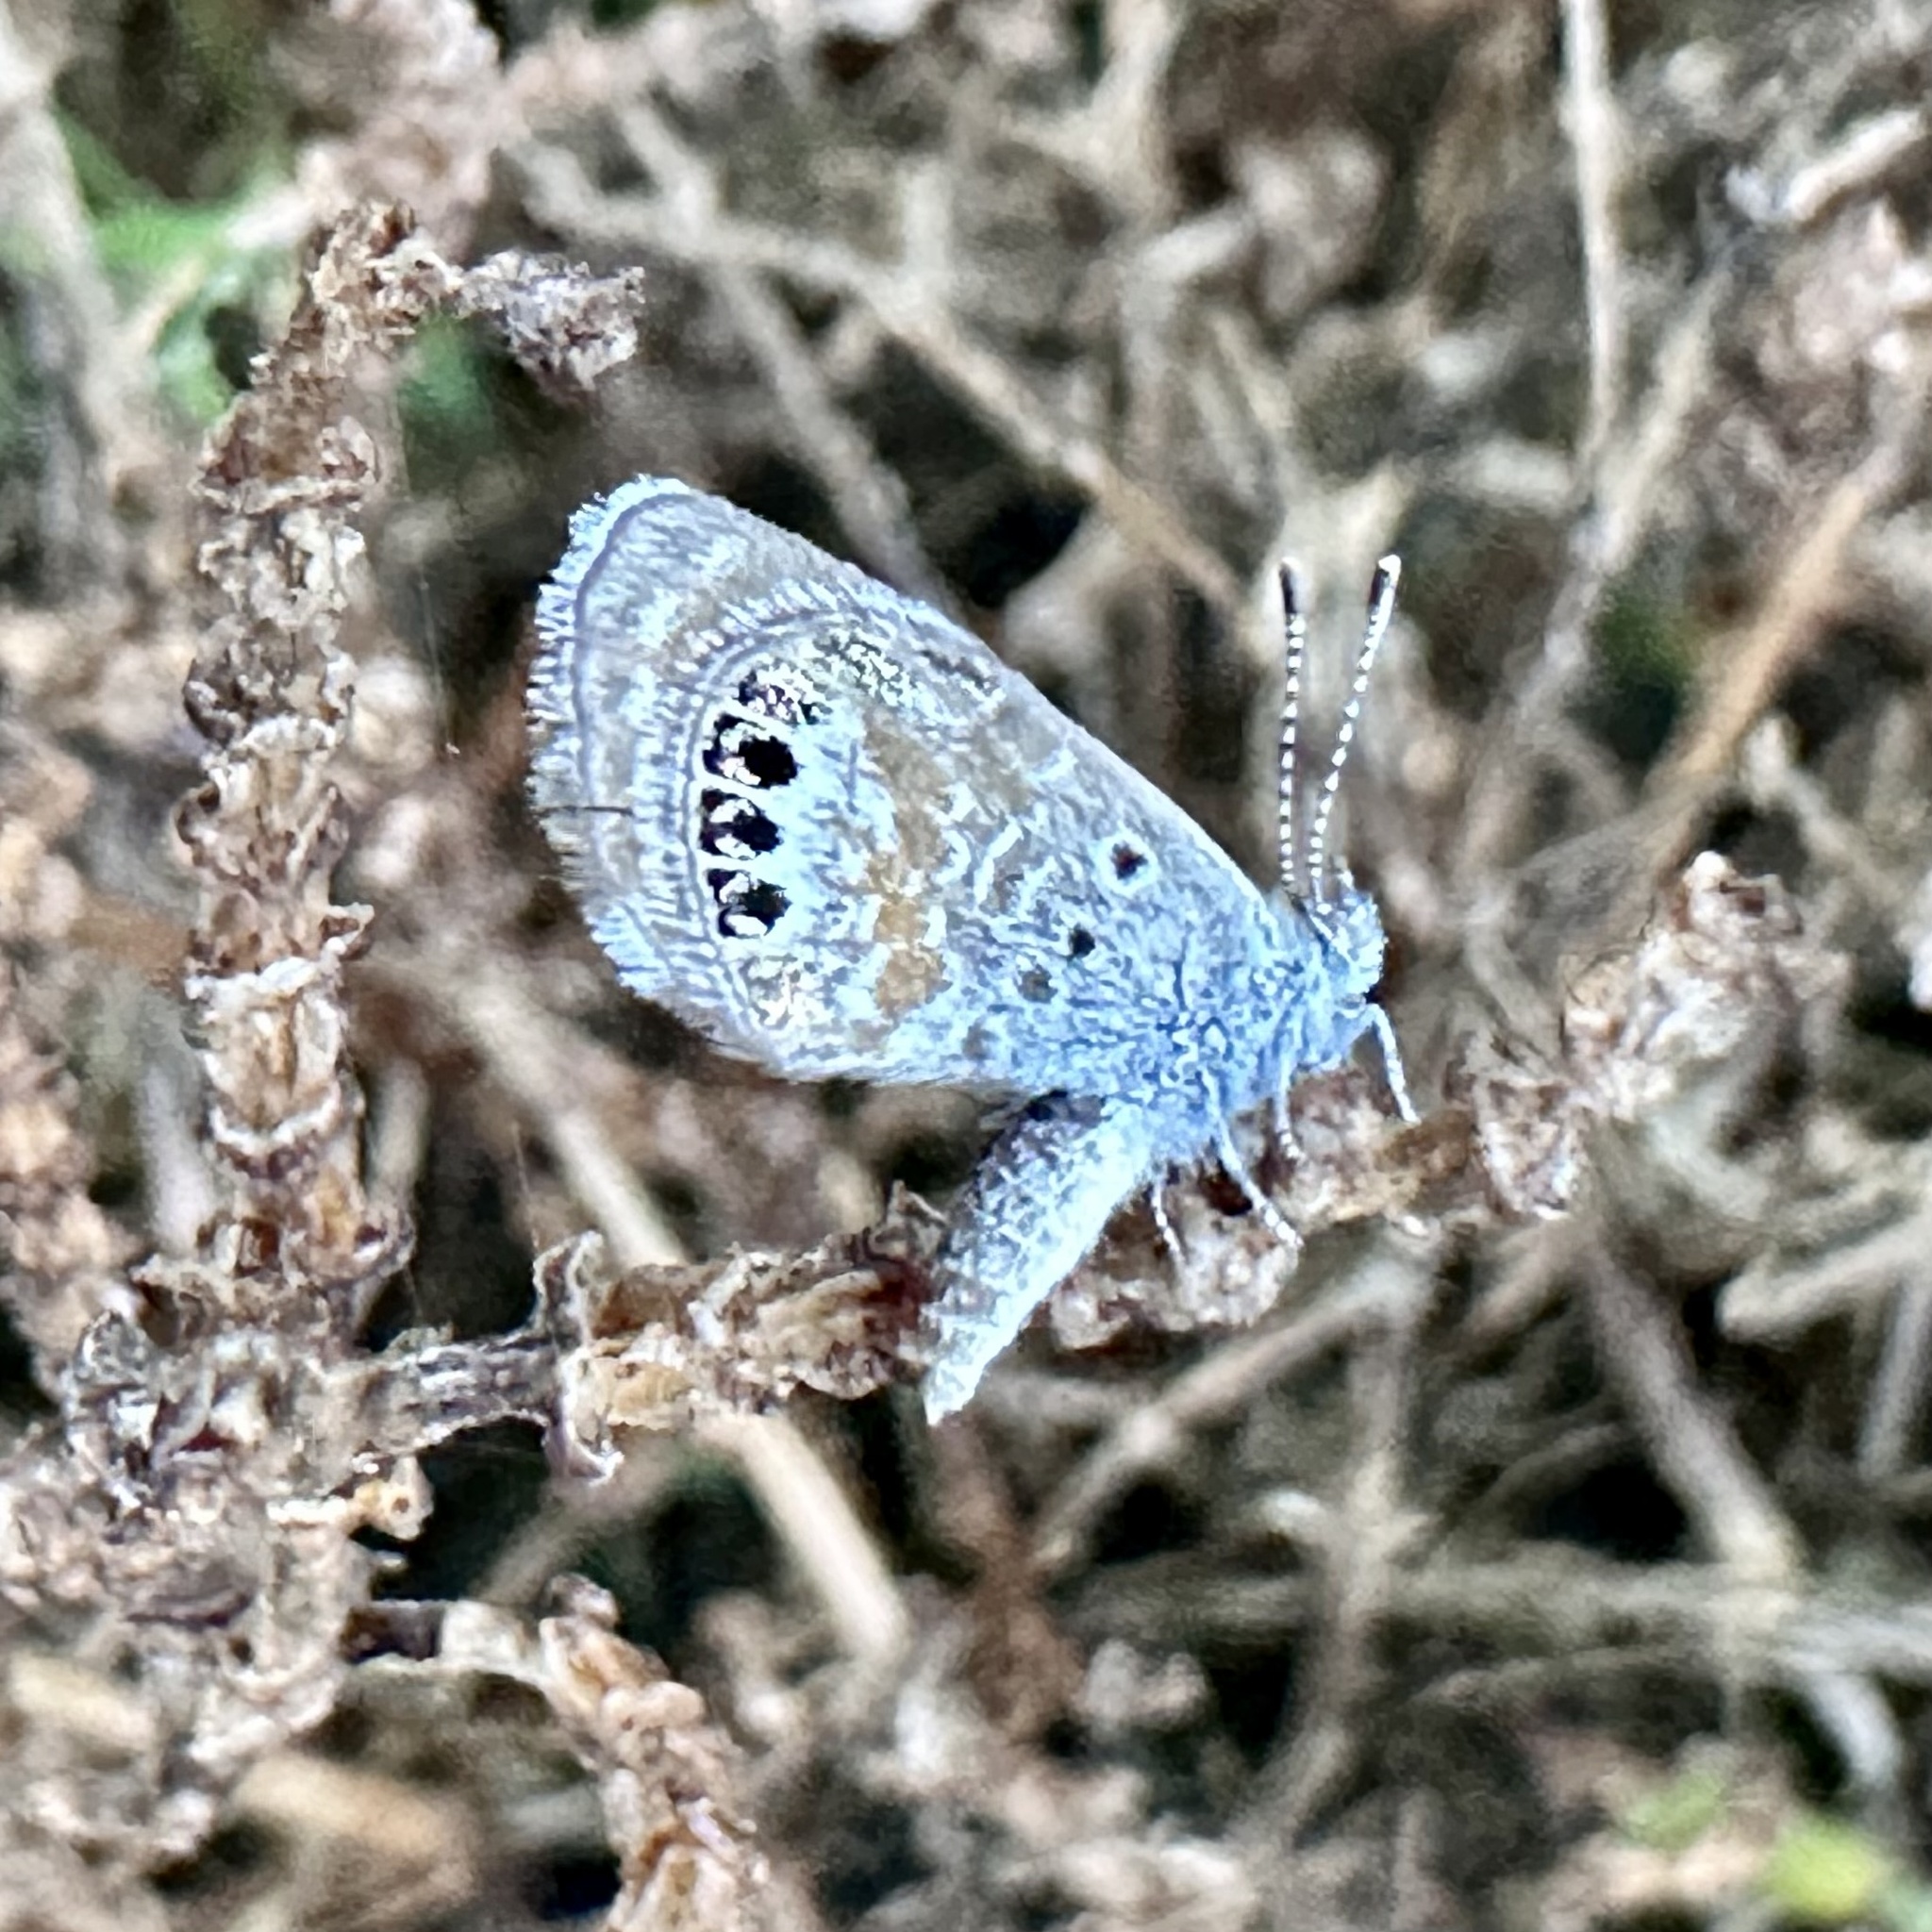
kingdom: Animalia
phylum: Arthropoda
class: Insecta
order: Lepidoptera
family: Lycaenidae
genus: Brephidium
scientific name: Brephidium exilis
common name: Pygmy blue
